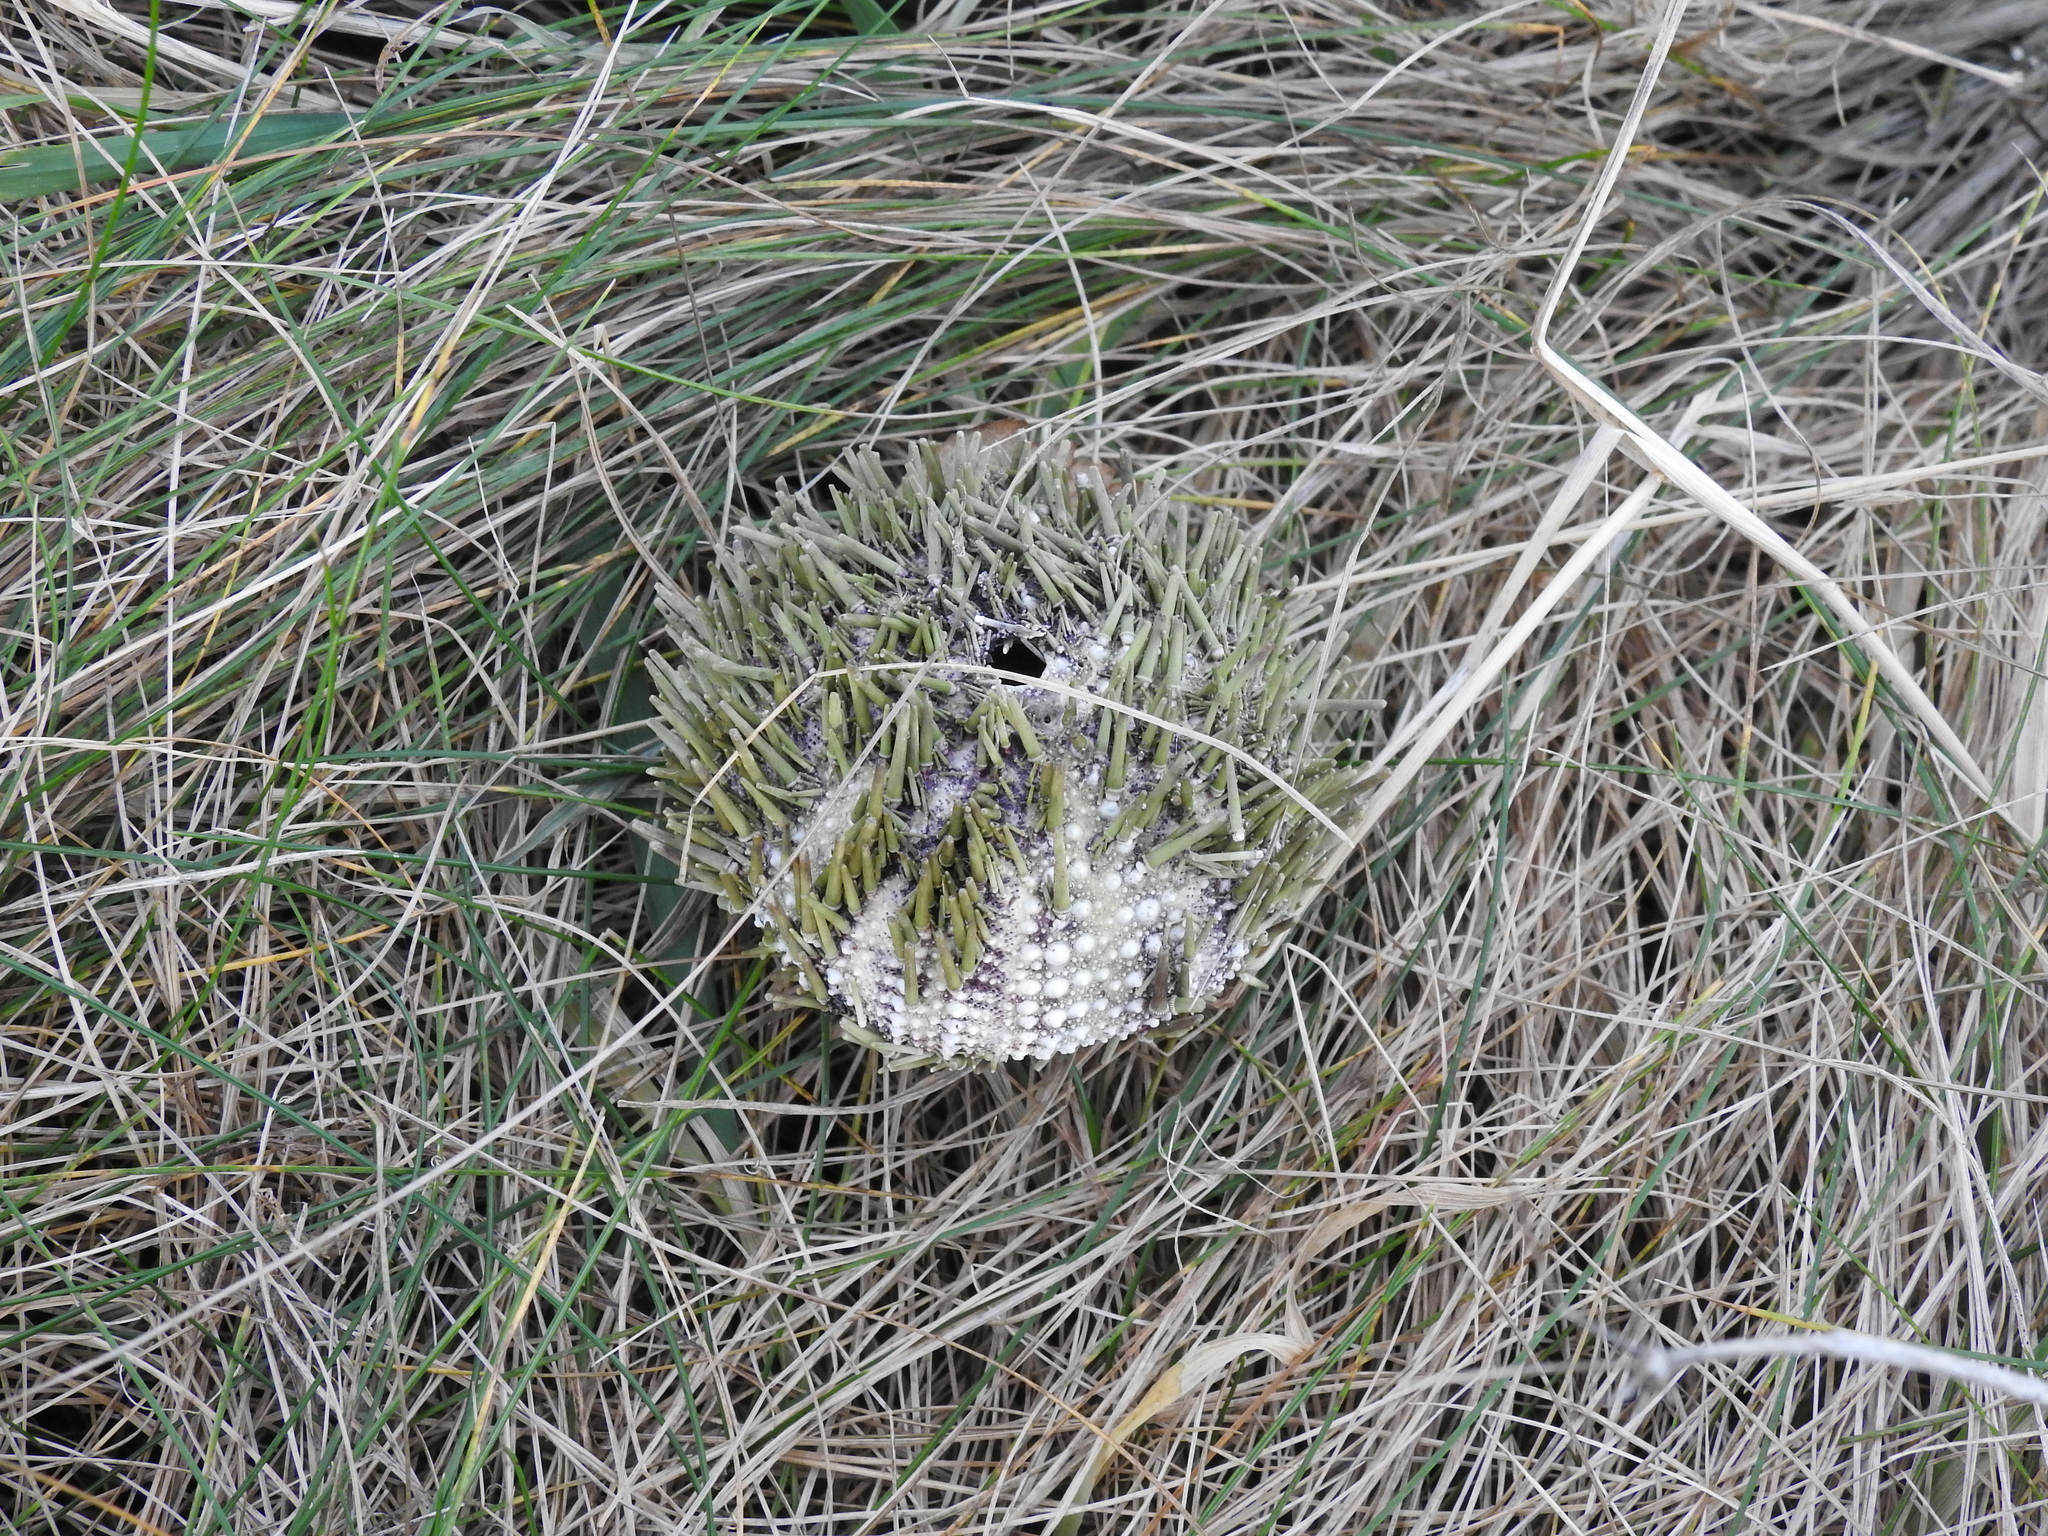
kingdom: Animalia
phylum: Echinodermata
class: Echinoidea
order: Camarodonta
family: Strongylocentrotidae
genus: Strongylocentrotus
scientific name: Strongylocentrotus droebachiensis
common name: Northern sea urchin
